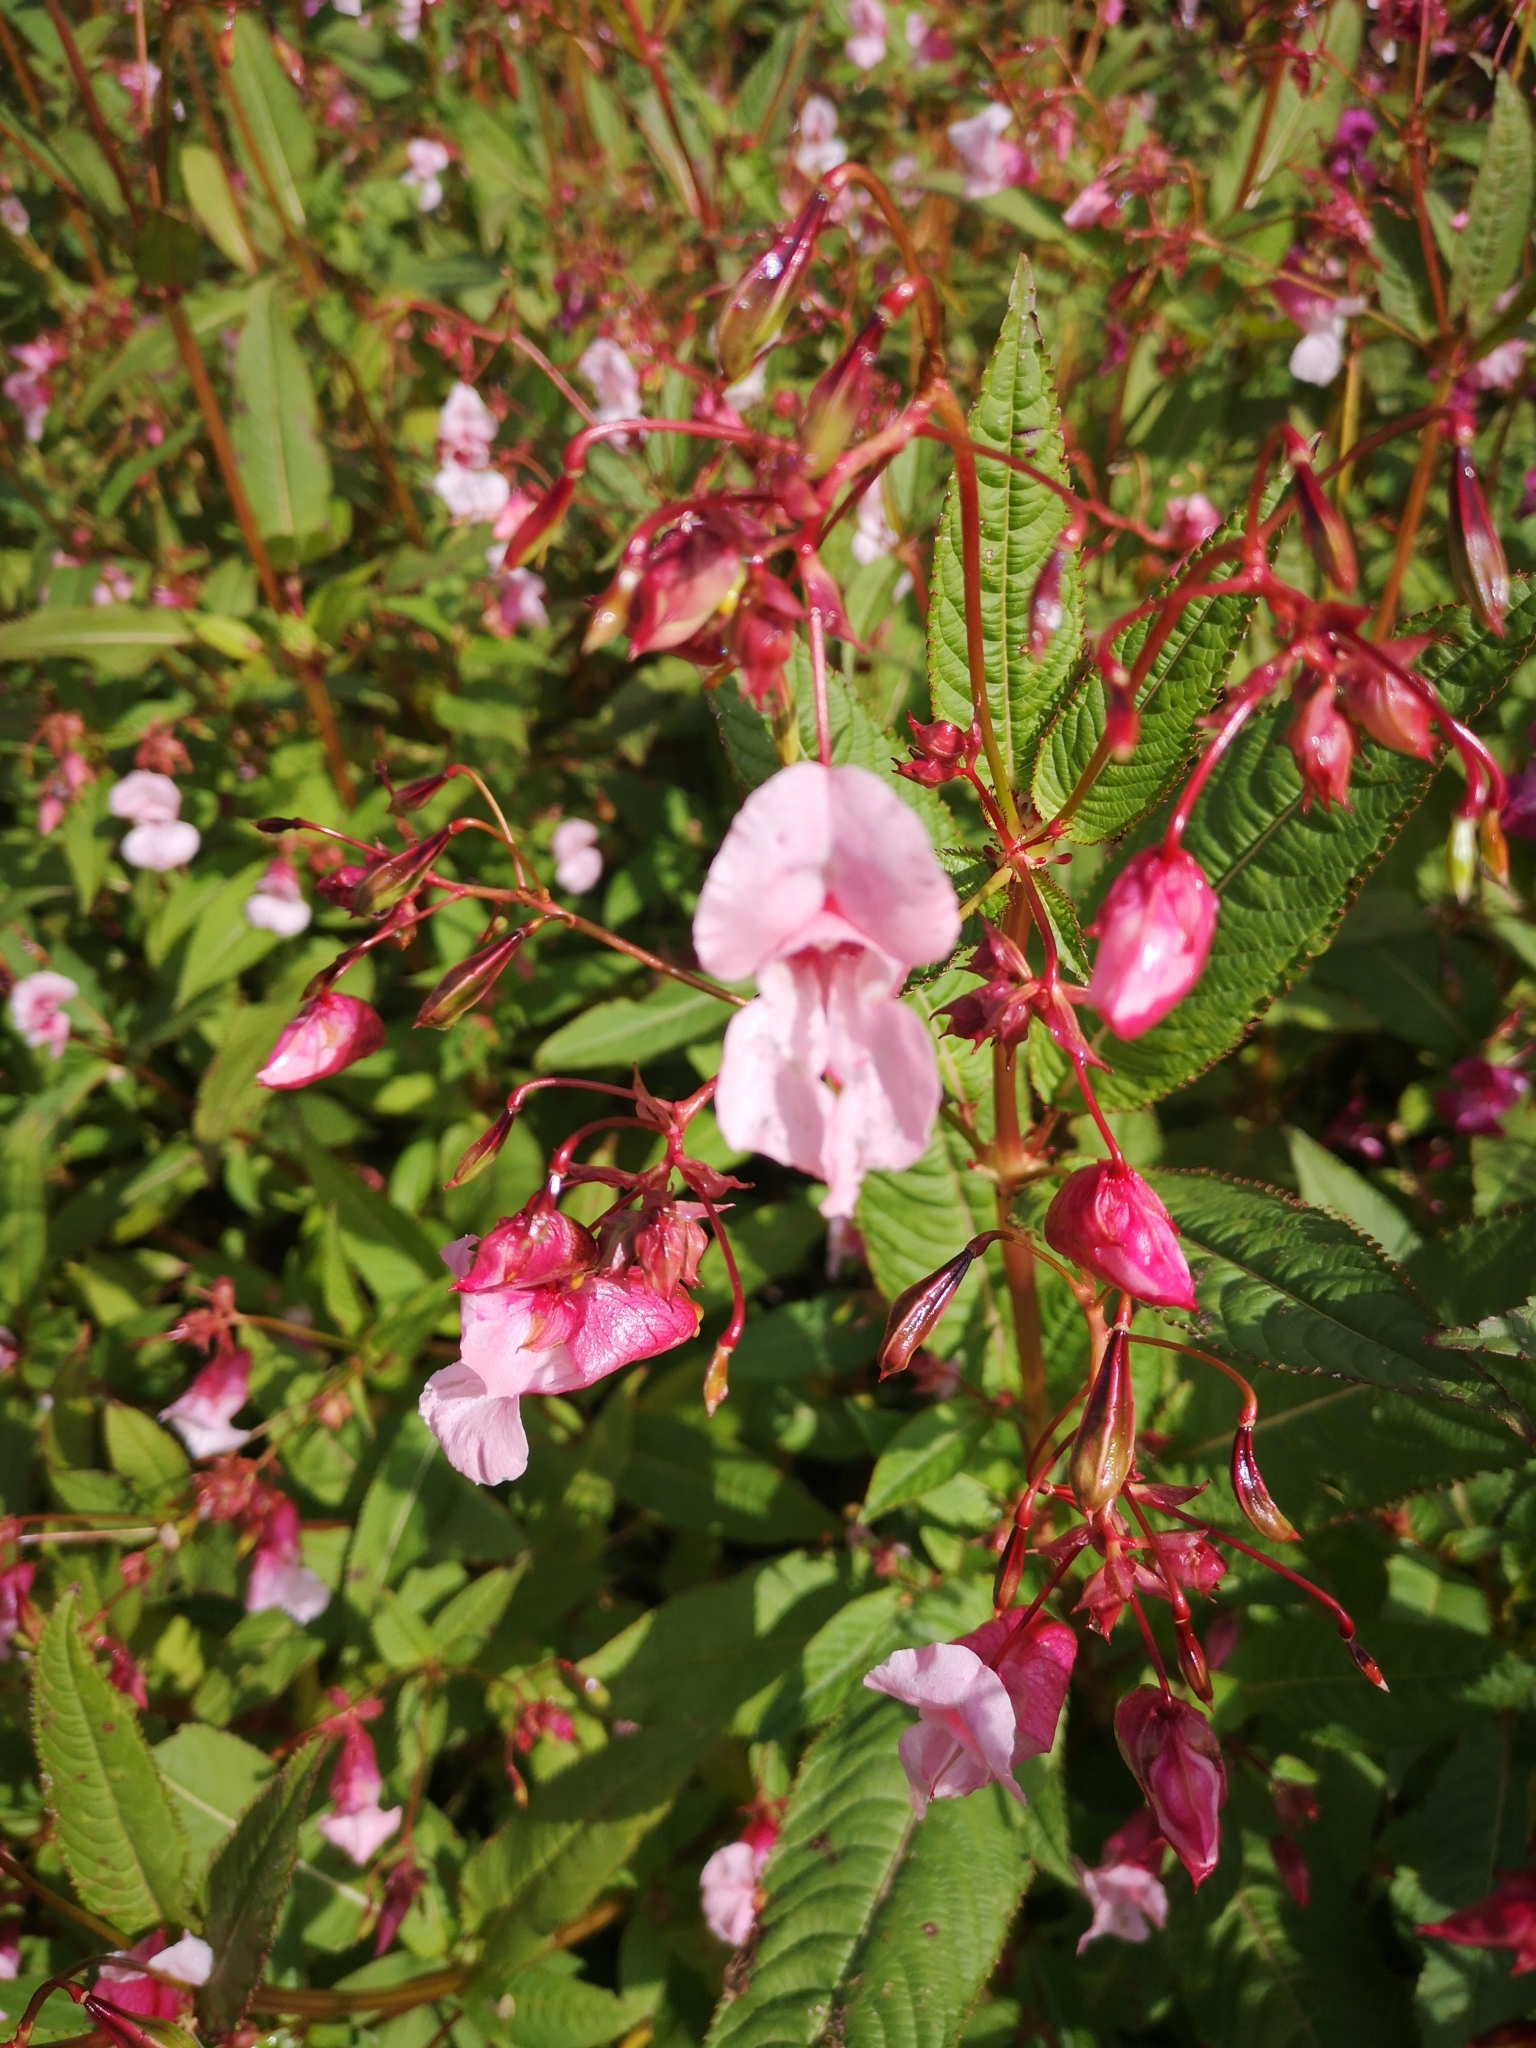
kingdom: Plantae
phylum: Tracheophyta
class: Magnoliopsida
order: Ericales
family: Balsaminaceae
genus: Impatiens
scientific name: Impatiens glandulifera
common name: Himalayan balsam
